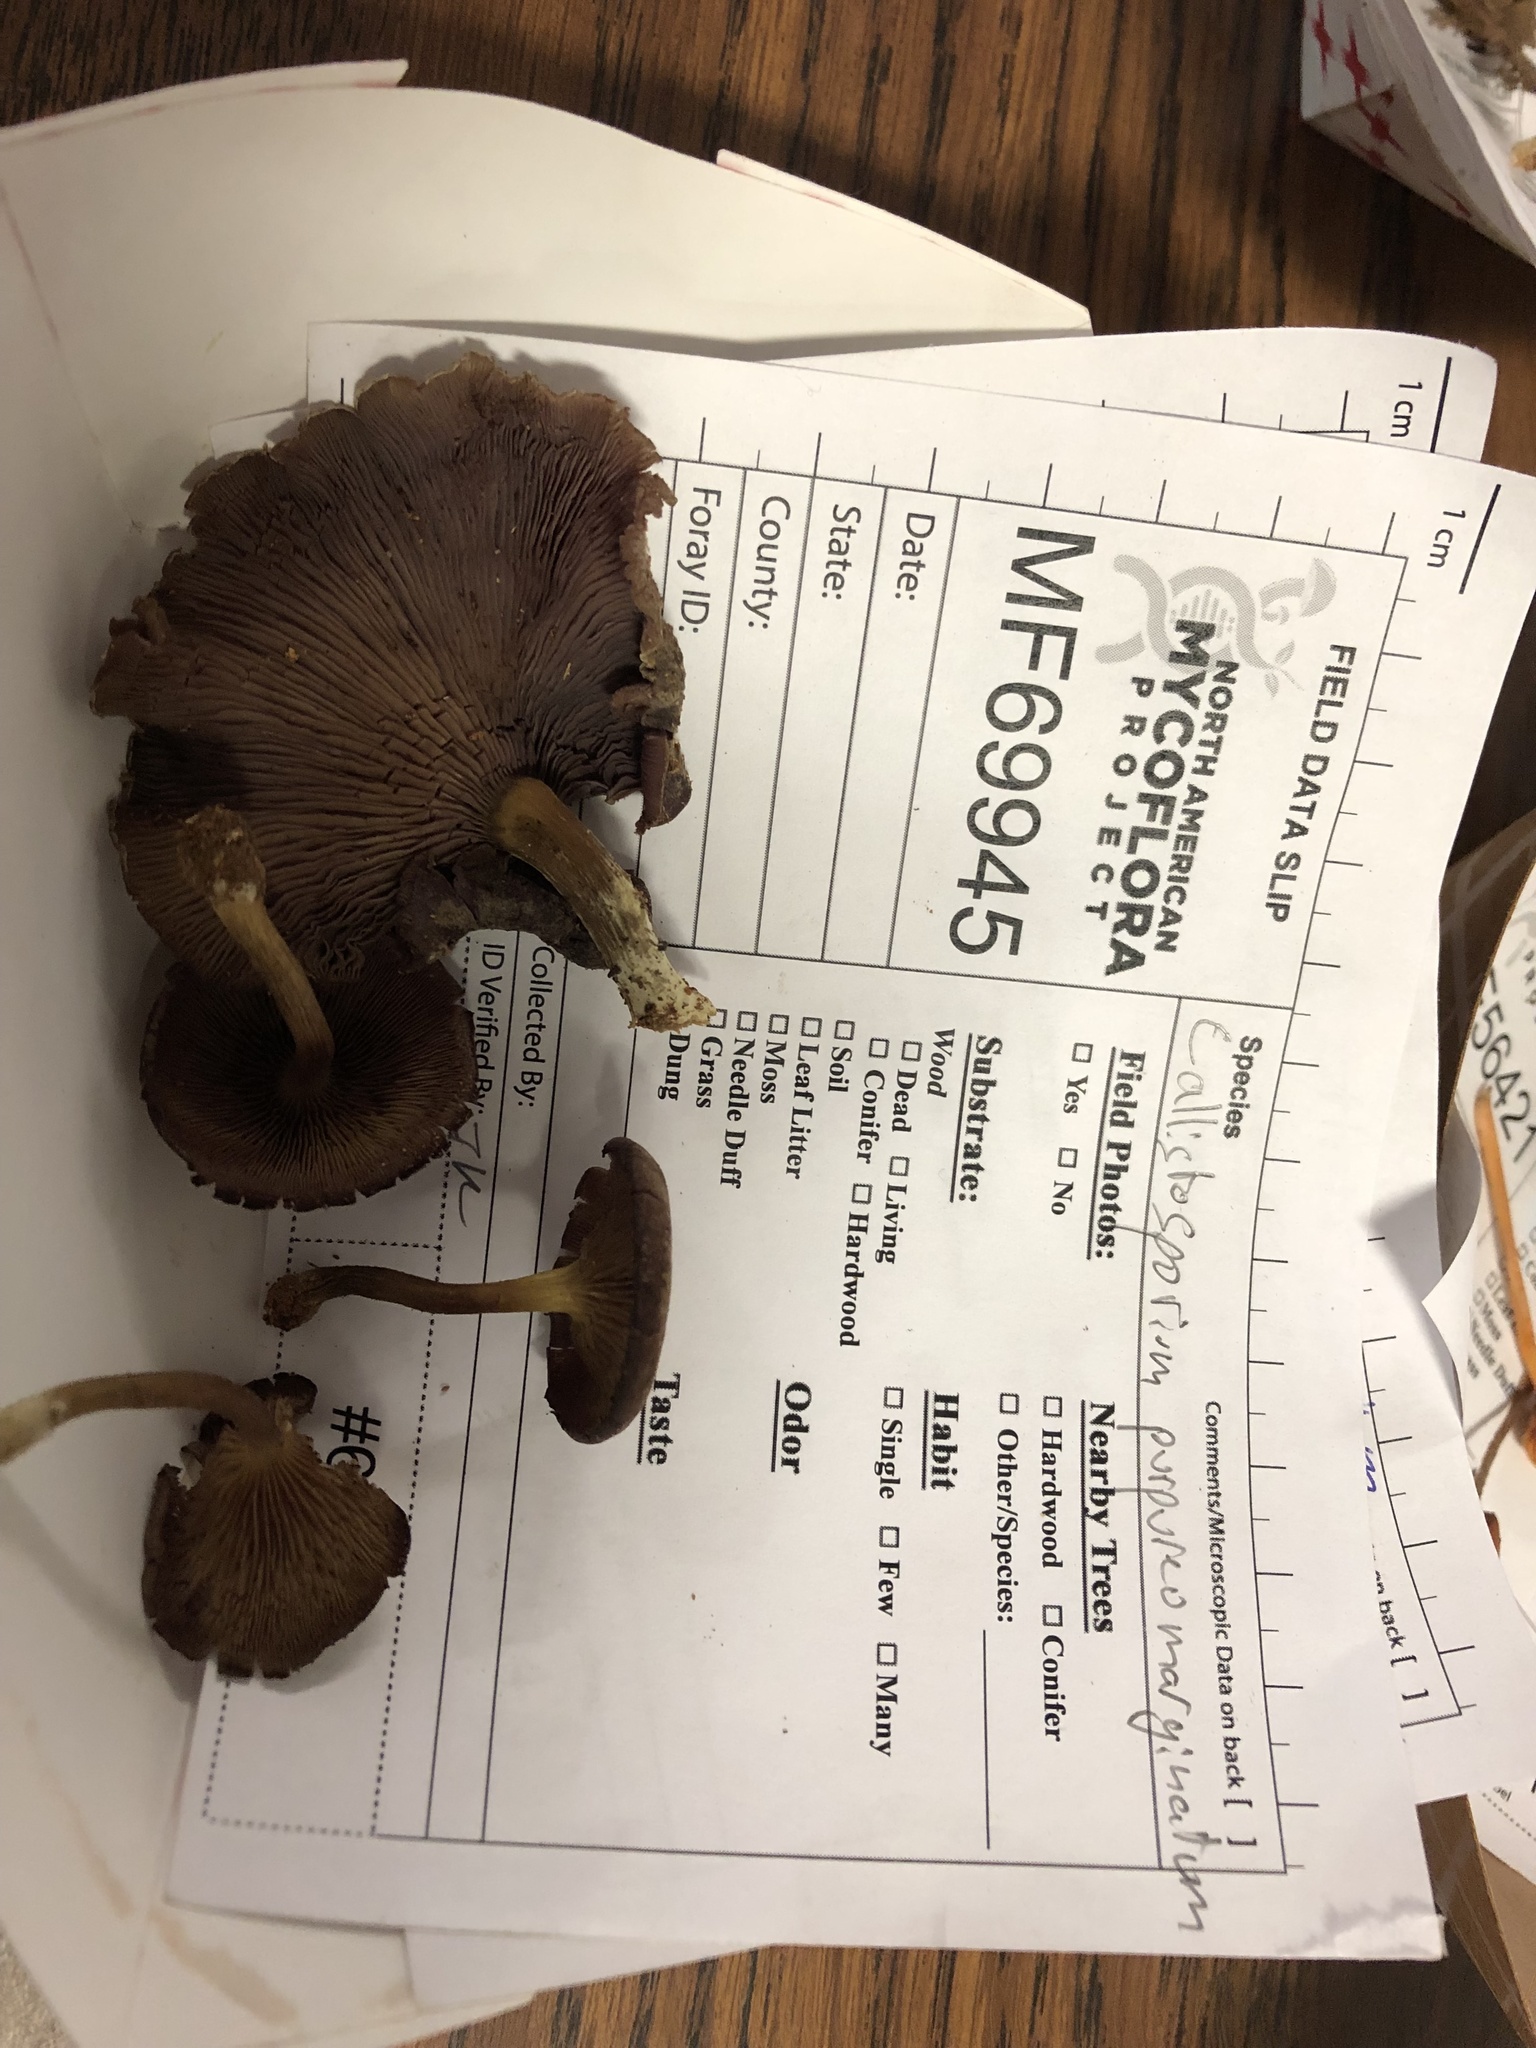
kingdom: Fungi
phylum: Basidiomycota
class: Agaricomycetes
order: Agaricales
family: Callistosporiaceae
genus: Callistosporium
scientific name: Callistosporium purpureomarginatum
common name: Purple-edged lute
